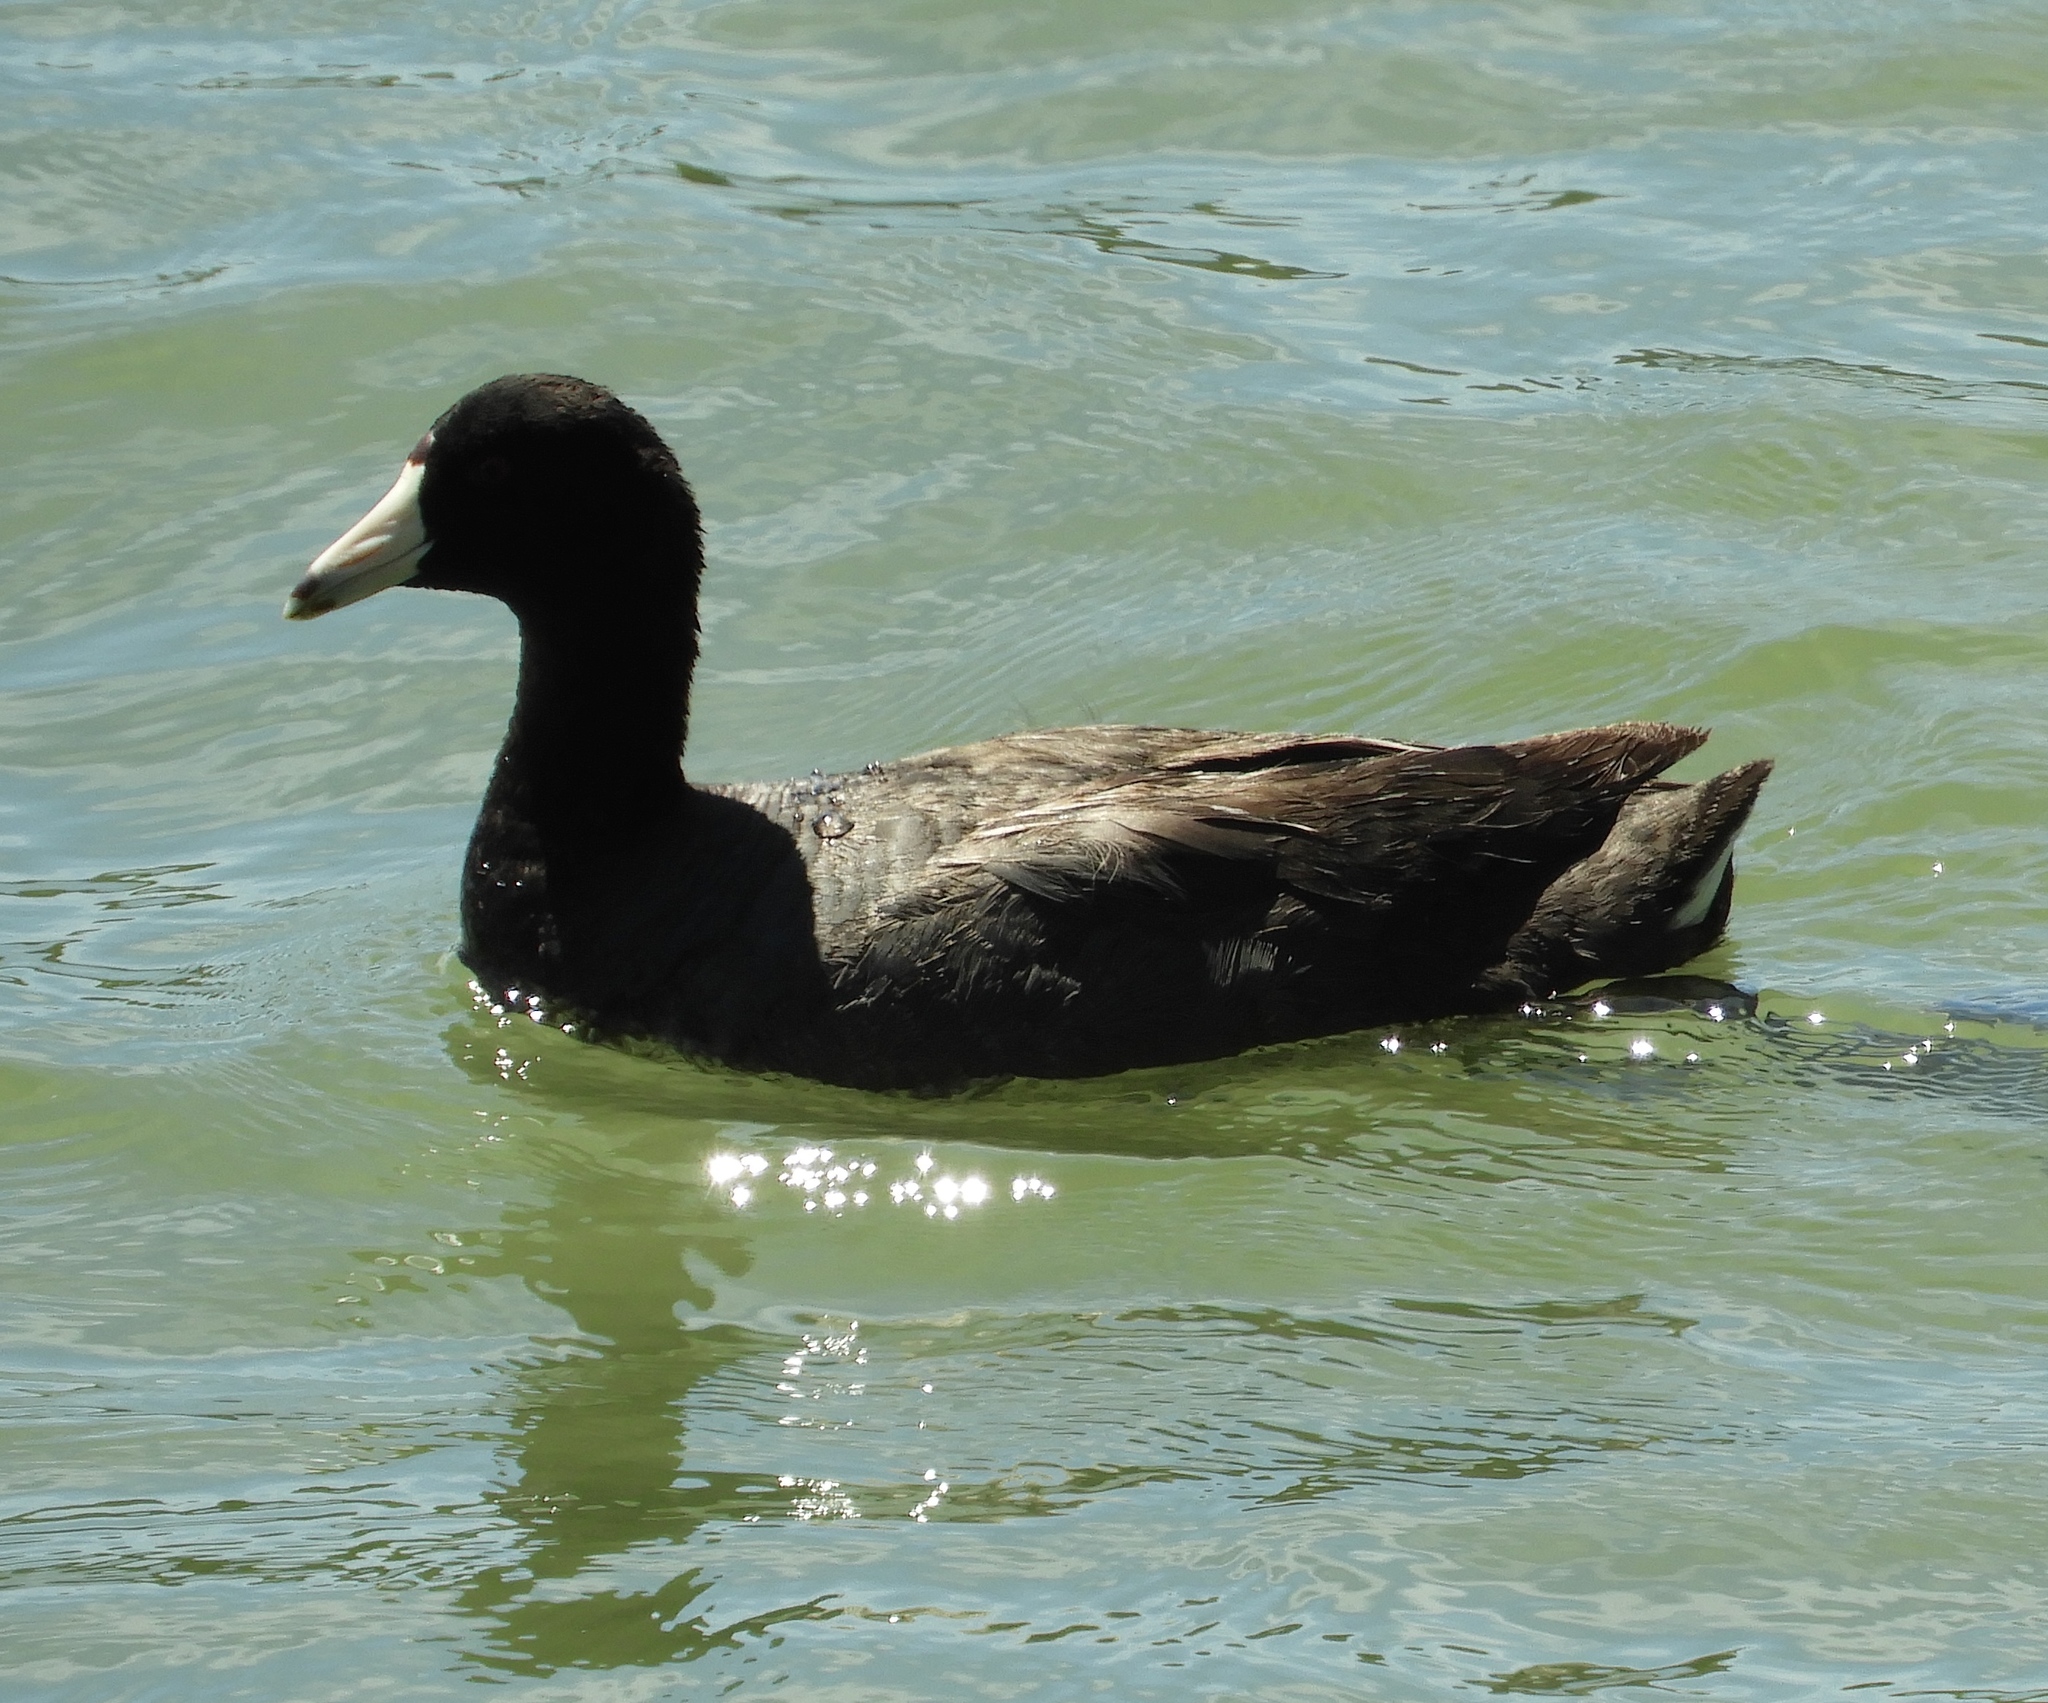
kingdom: Animalia
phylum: Chordata
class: Aves
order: Gruiformes
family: Rallidae
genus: Fulica
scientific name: Fulica americana
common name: American coot
